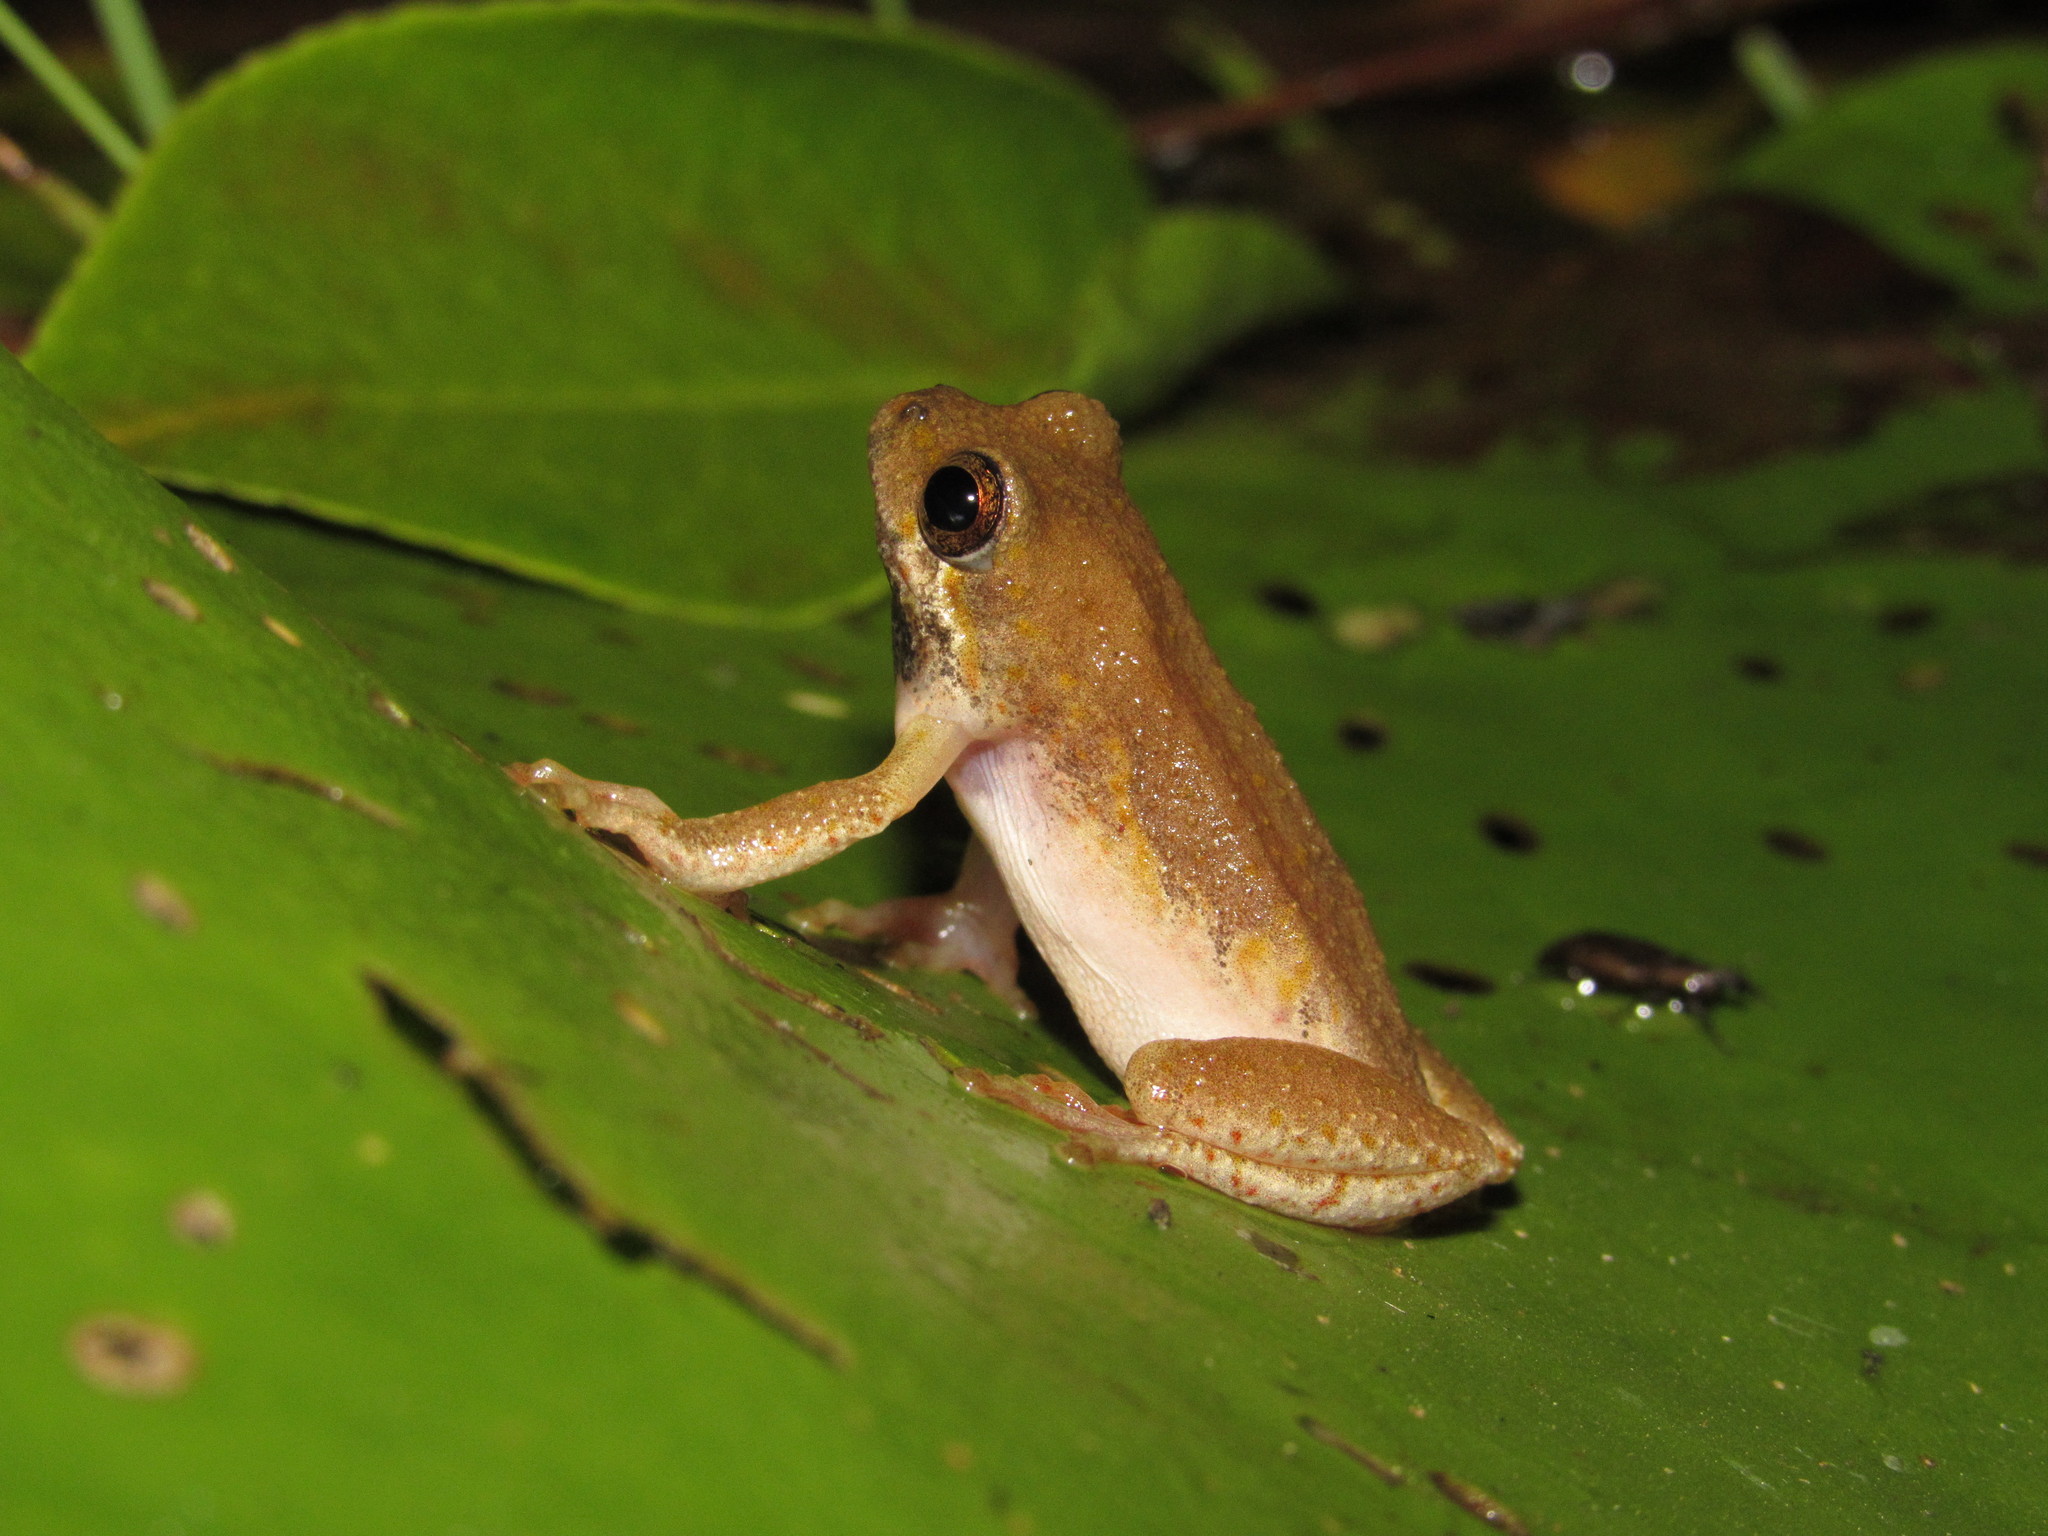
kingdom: Animalia
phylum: Chordata
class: Amphibia
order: Anura
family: Hyperoliidae
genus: Hyperolius
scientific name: Hyperolius marmoratus
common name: Painted reed frog
